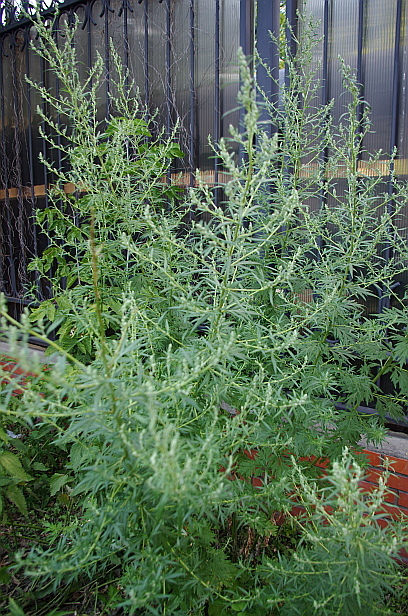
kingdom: Plantae
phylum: Tracheophyta
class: Magnoliopsida
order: Asterales
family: Asteraceae
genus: Artemisia
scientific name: Artemisia vulgaris
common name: Mugwort
